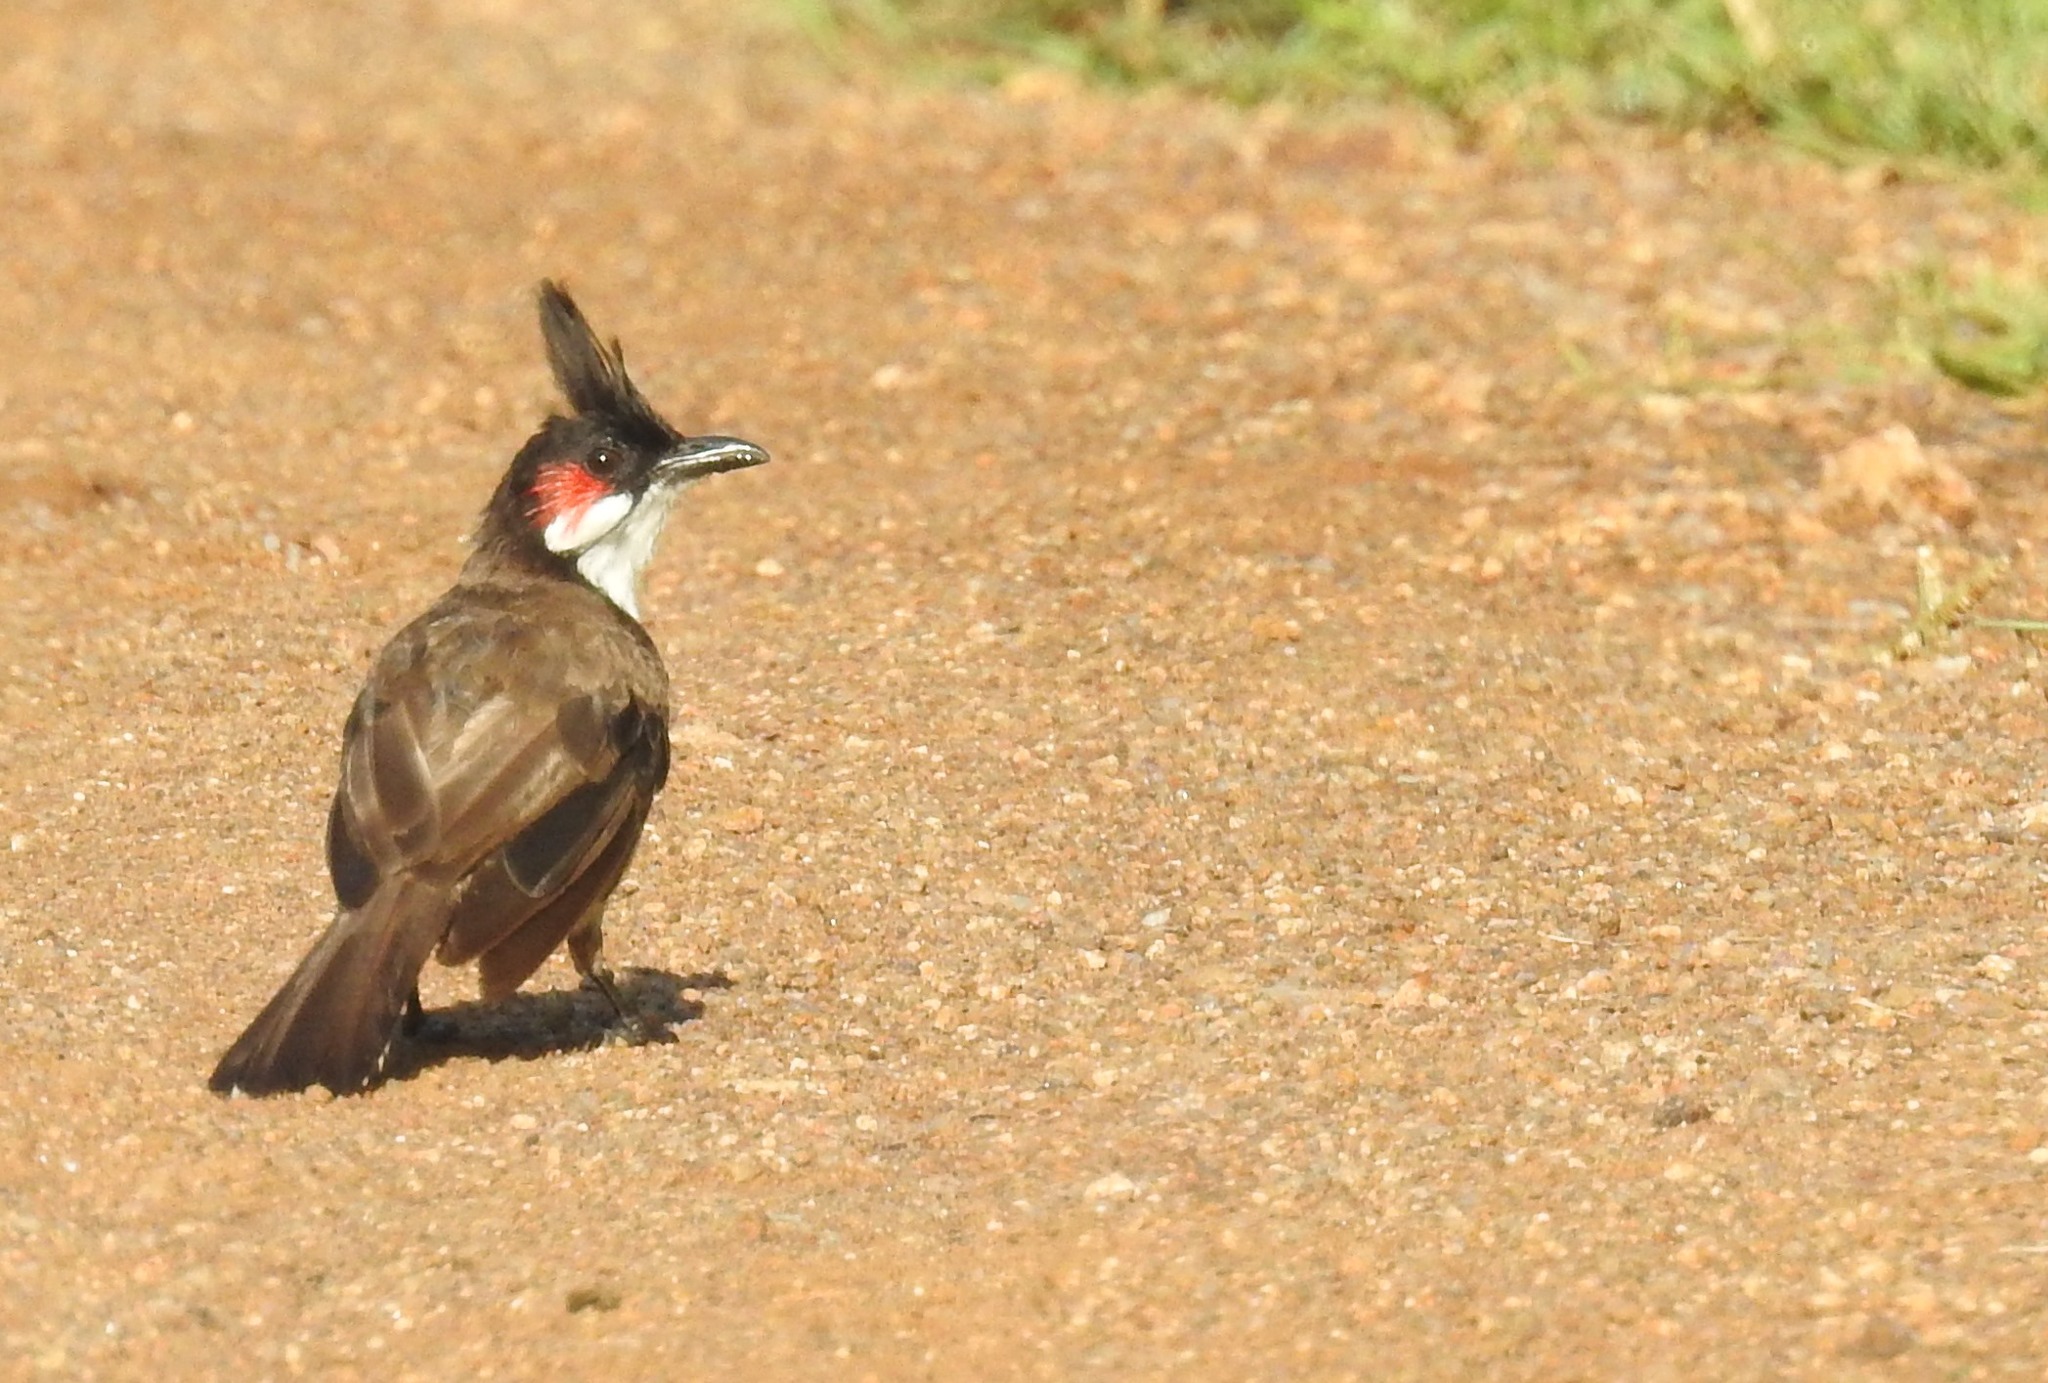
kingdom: Animalia
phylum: Chordata
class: Aves
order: Passeriformes
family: Pycnonotidae
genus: Pycnonotus
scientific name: Pycnonotus jocosus
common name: Red-whiskered bulbul
